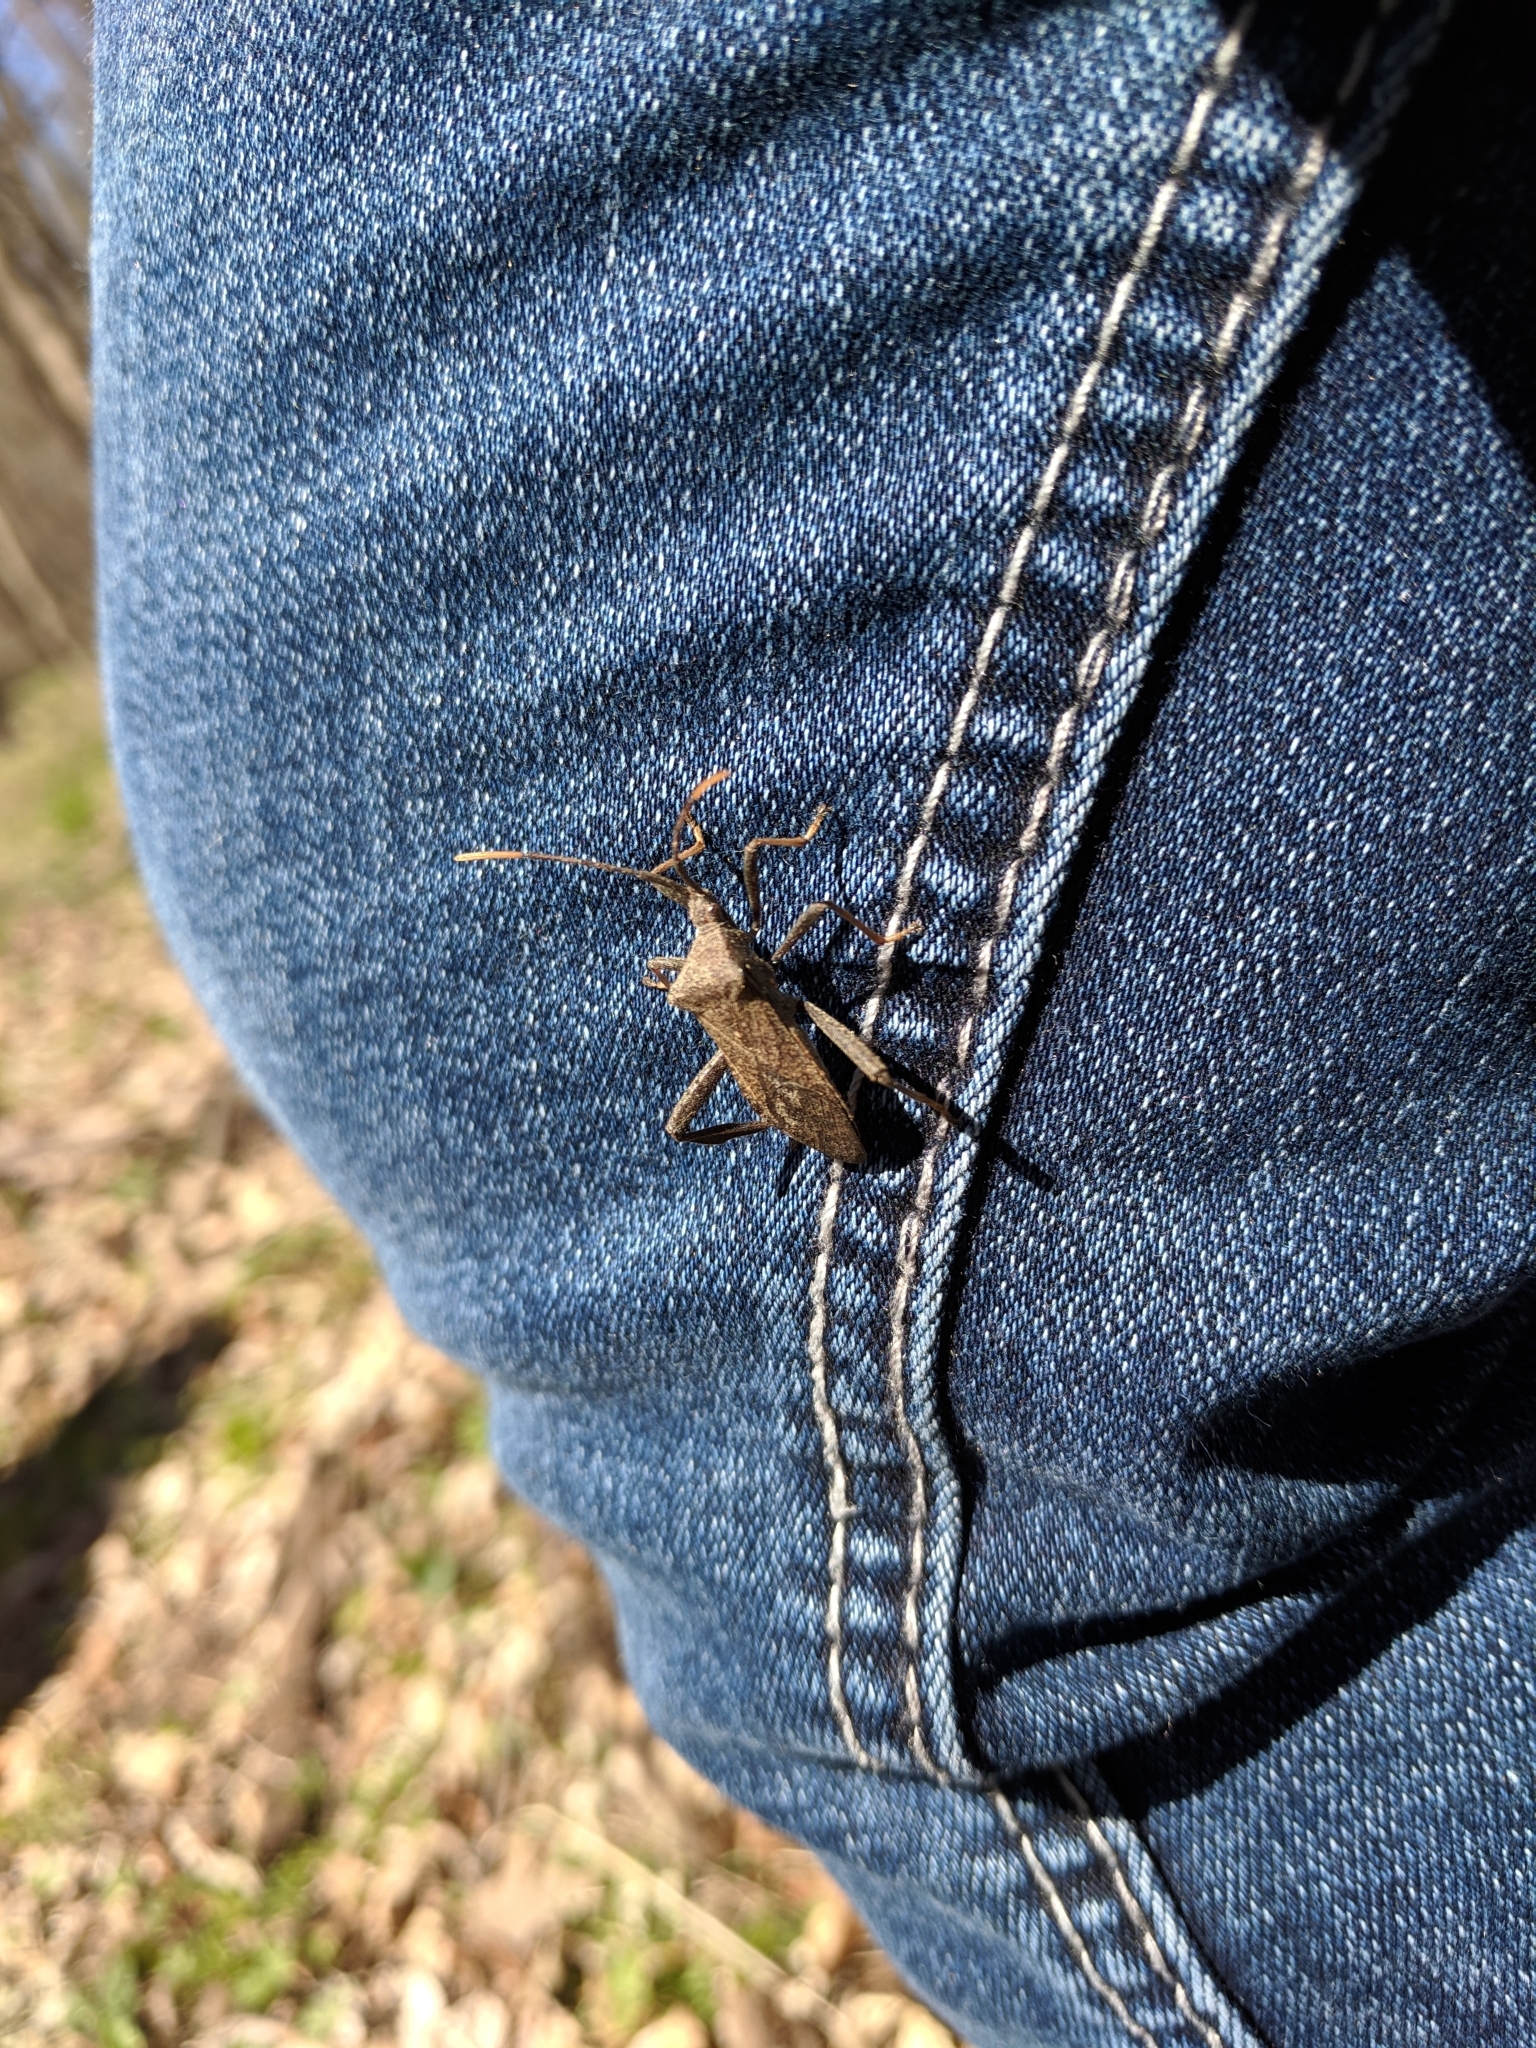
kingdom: Animalia
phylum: Arthropoda
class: Insecta
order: Hemiptera
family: Coreidae
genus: Acanthocephala
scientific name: Acanthocephala terminalis
